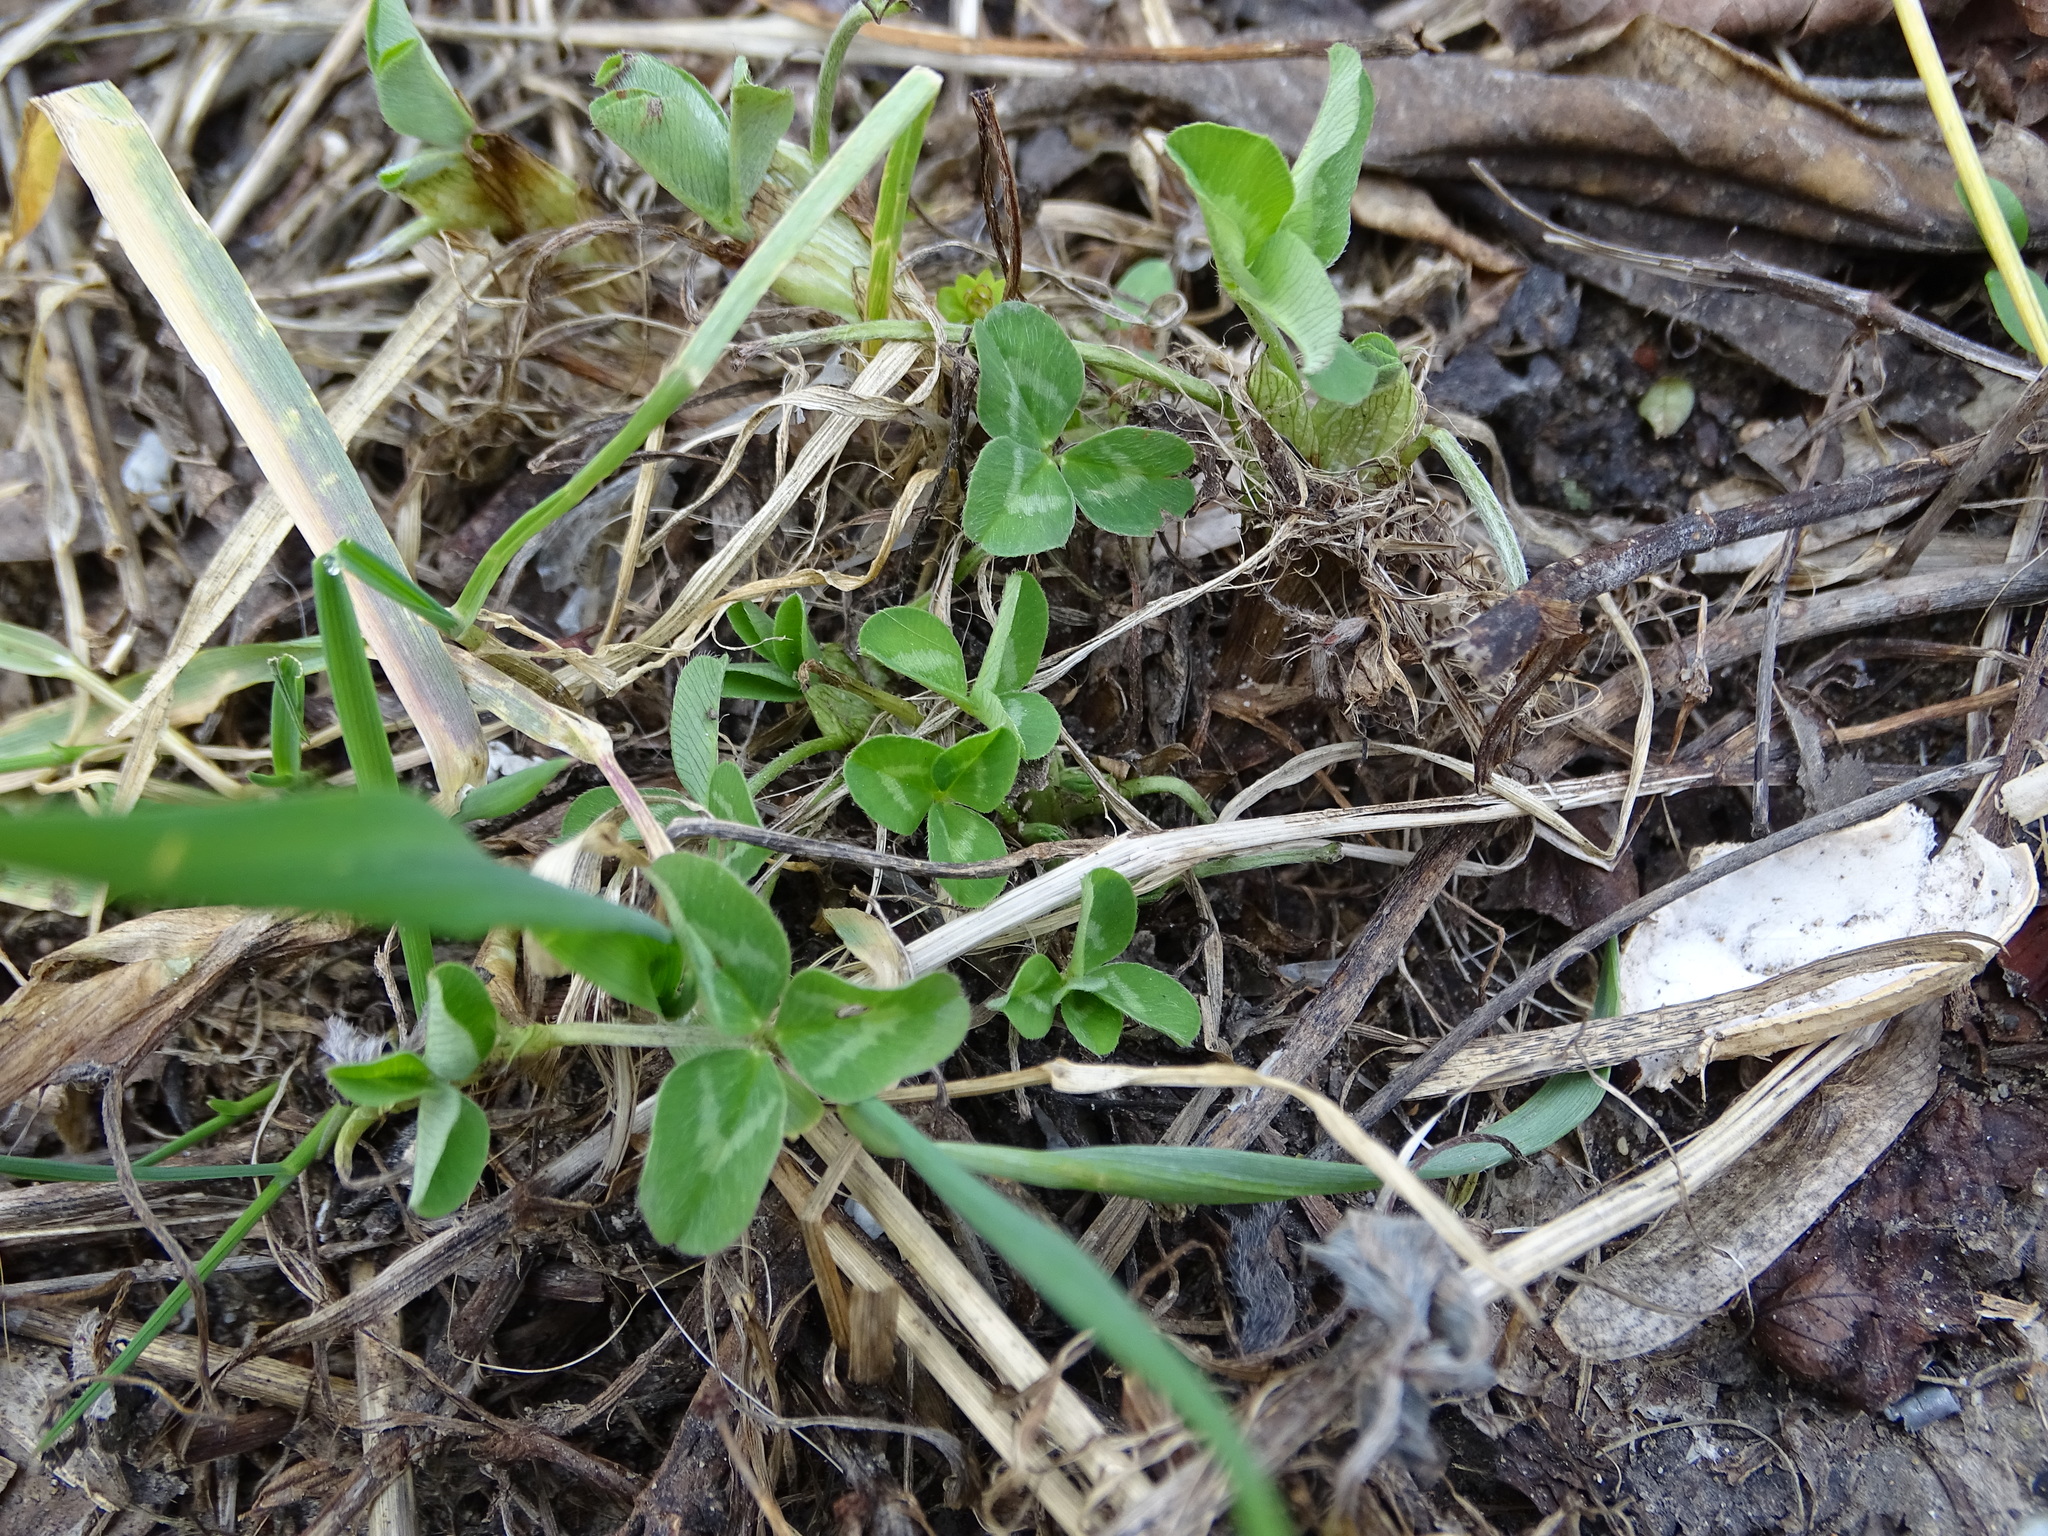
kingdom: Plantae
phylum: Tracheophyta
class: Magnoliopsida
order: Fabales
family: Fabaceae
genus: Trifolium
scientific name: Trifolium pratense
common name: Red clover
